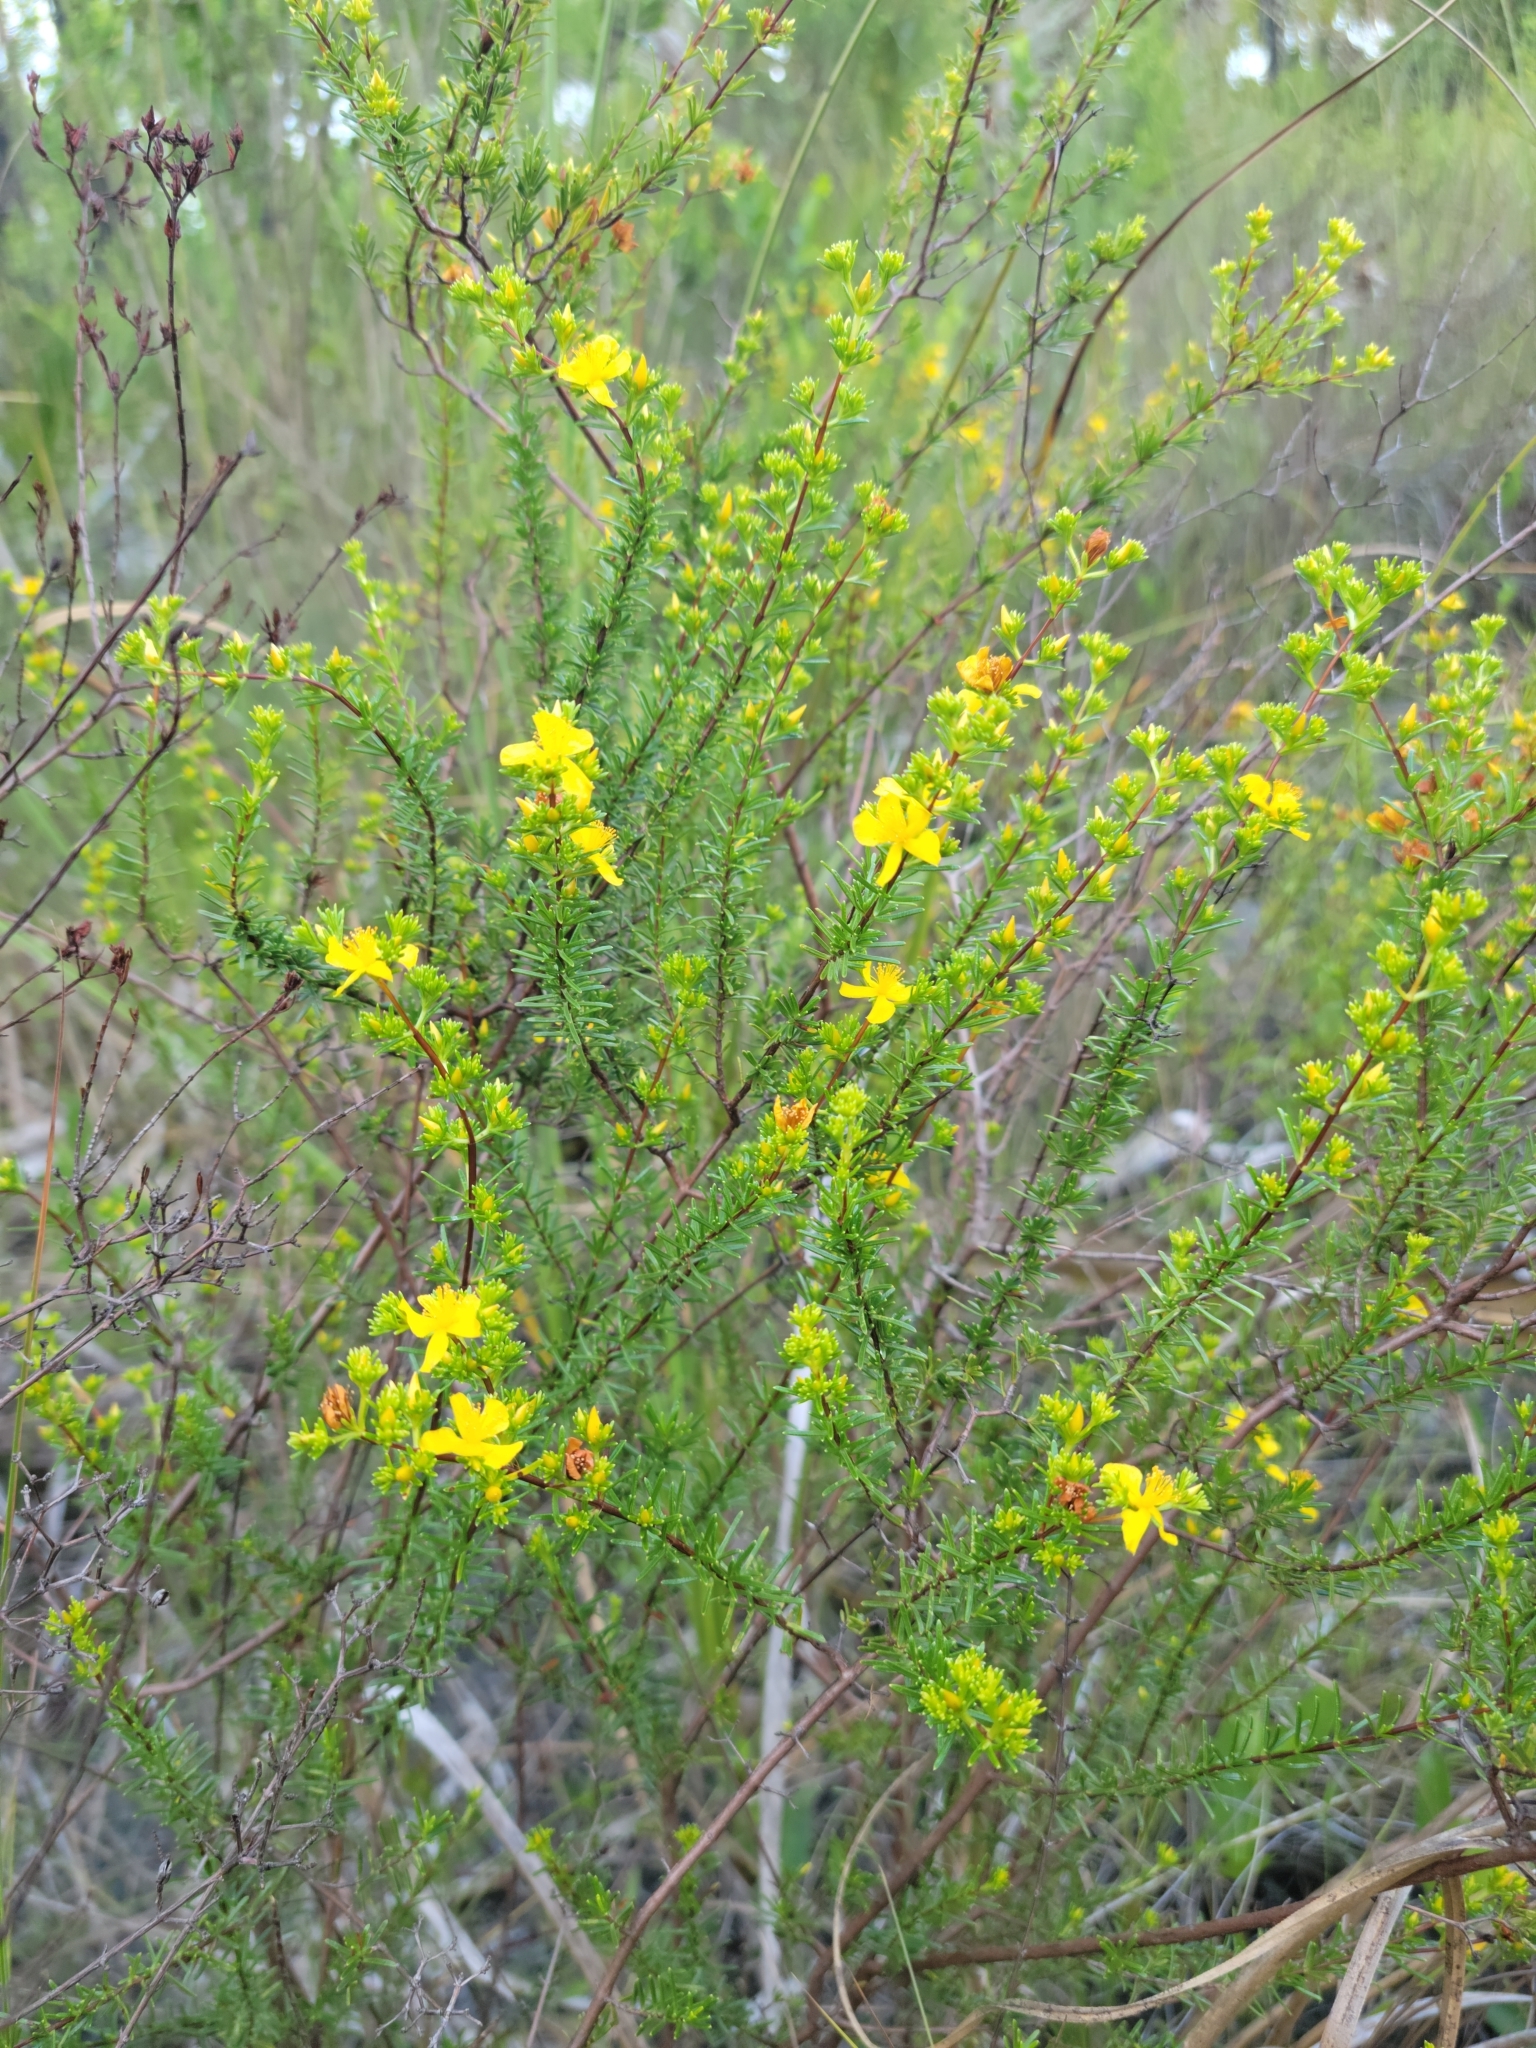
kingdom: Plantae
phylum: Tracheophyta
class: Magnoliopsida
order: Malpighiales
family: Hypericaceae
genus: Hypericum
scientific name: Hypericum limosum
